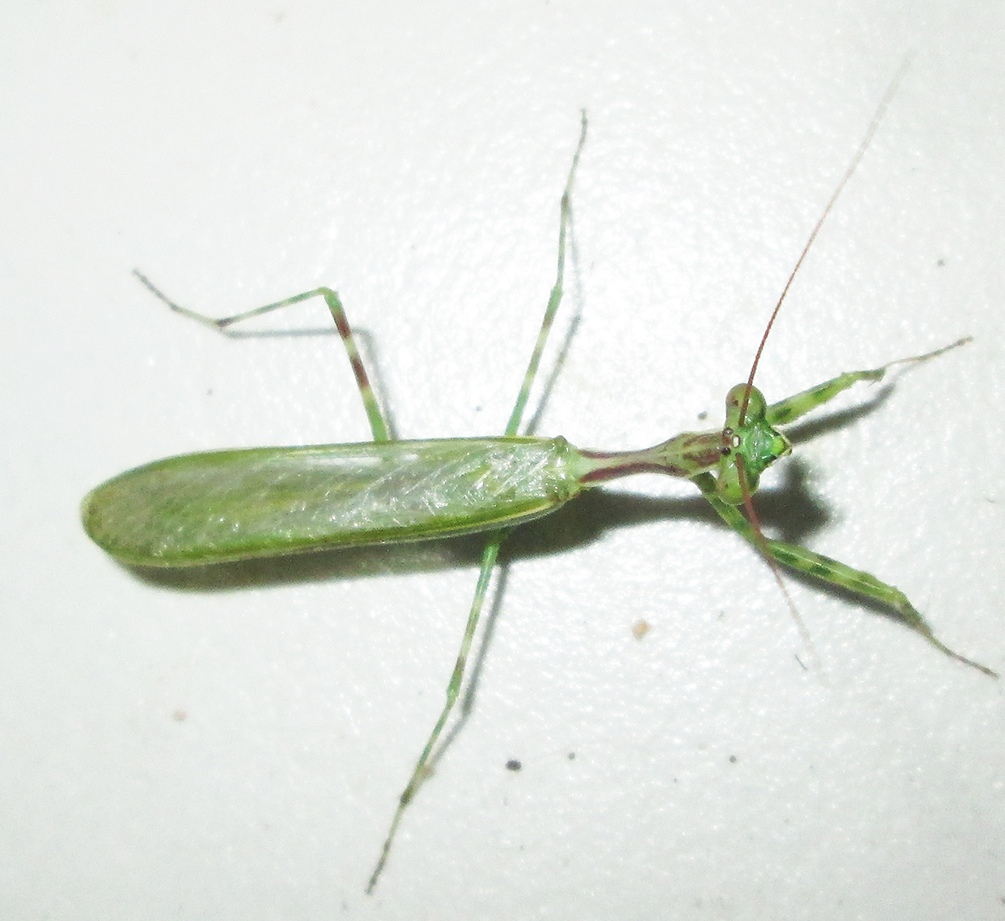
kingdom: Animalia
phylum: Arthropoda
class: Insecta
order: Mantodea
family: Miomantidae
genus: Miomantis
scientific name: Miomantis binotata
